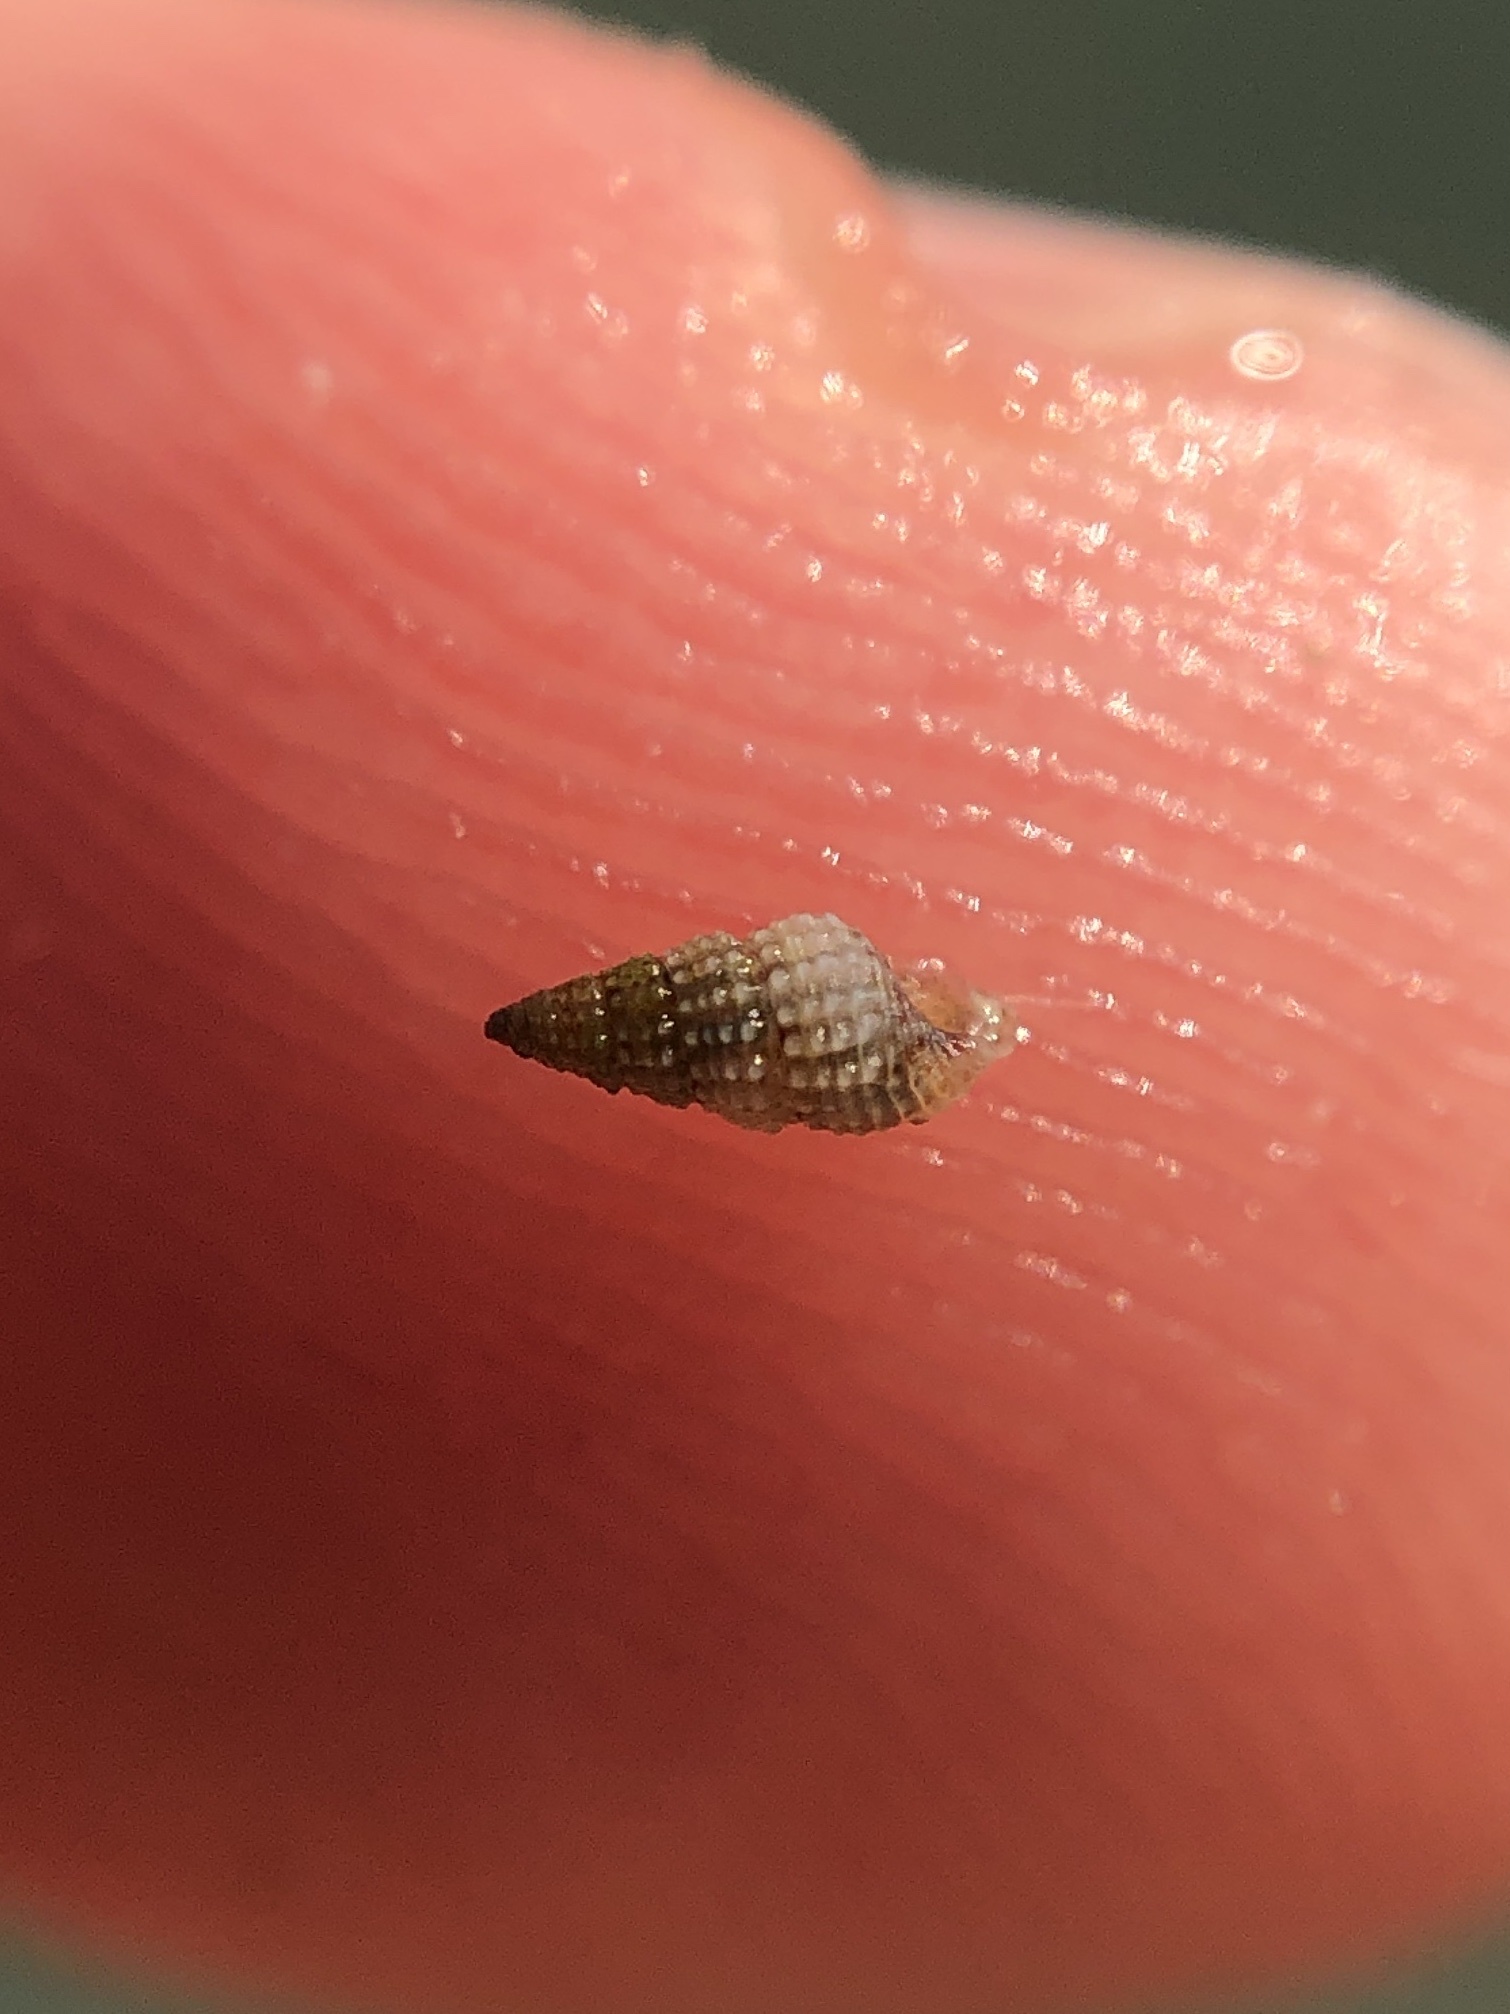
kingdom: Animalia
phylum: Mollusca
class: Gastropoda
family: Cerithiidae
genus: Bittiolum
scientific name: Bittiolum varium
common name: Grass cerith
